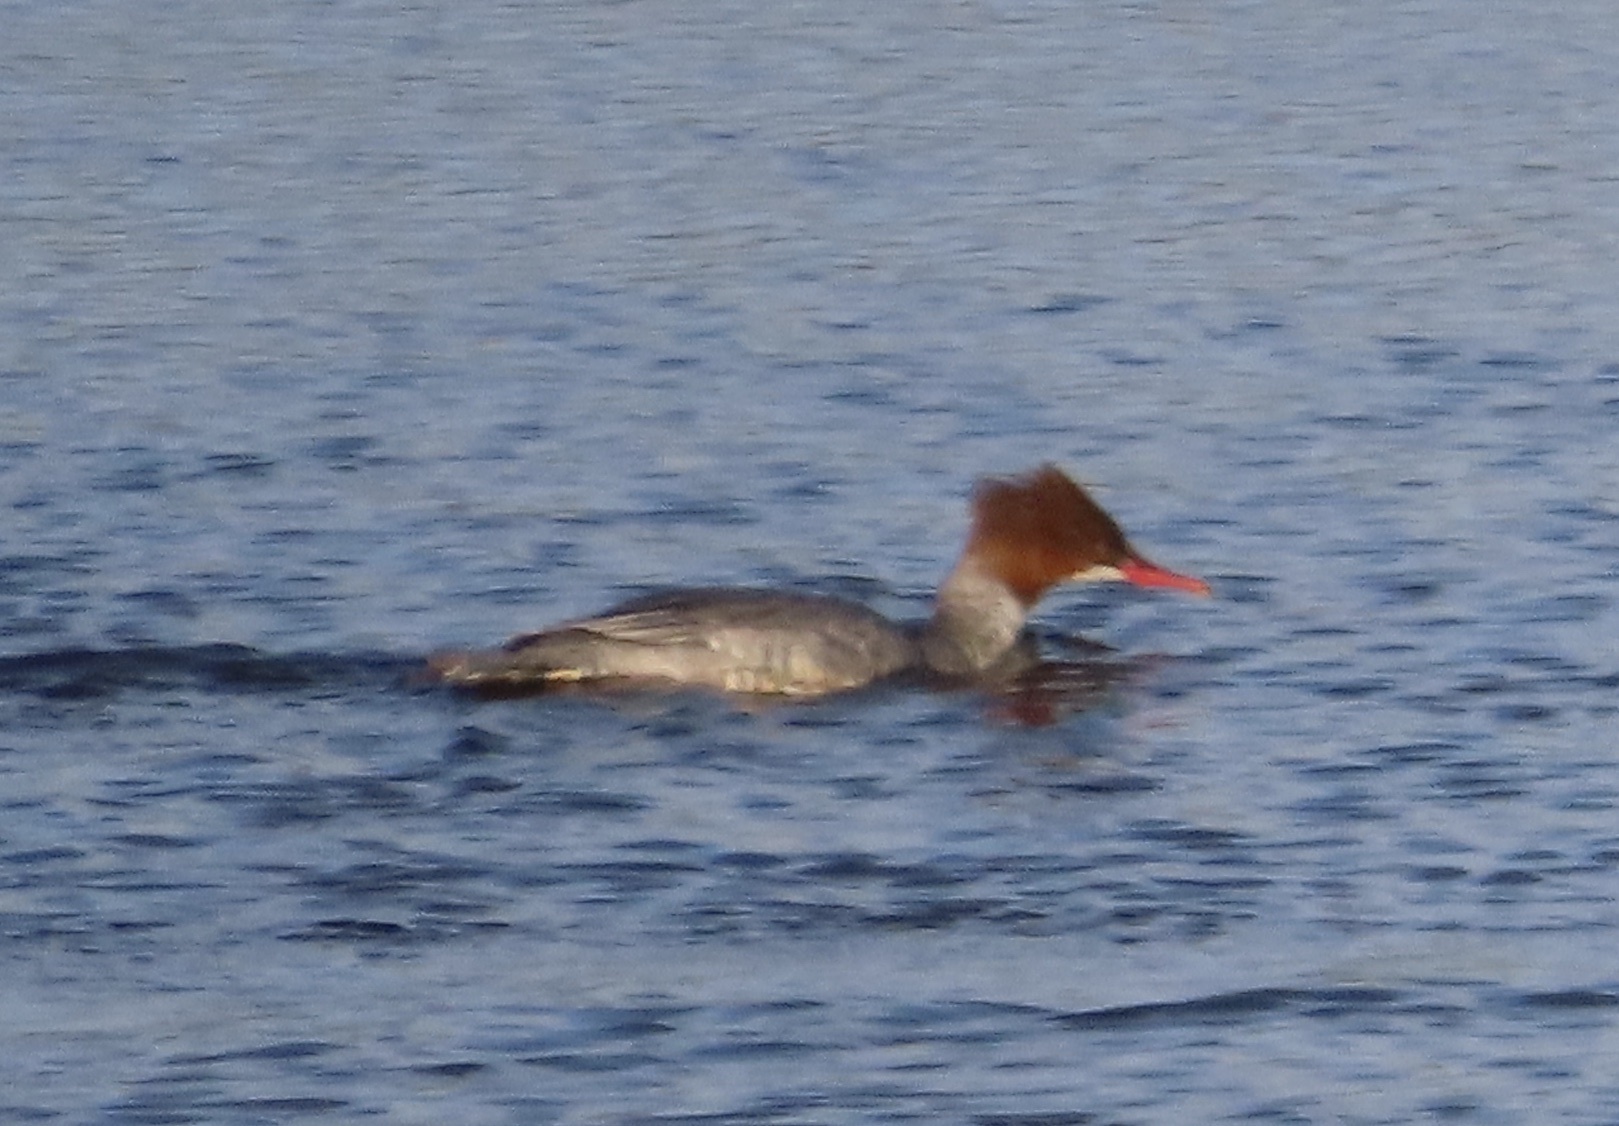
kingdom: Animalia
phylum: Chordata
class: Aves
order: Anseriformes
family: Anatidae
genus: Mergus
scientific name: Mergus merganser
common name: Common merganser
